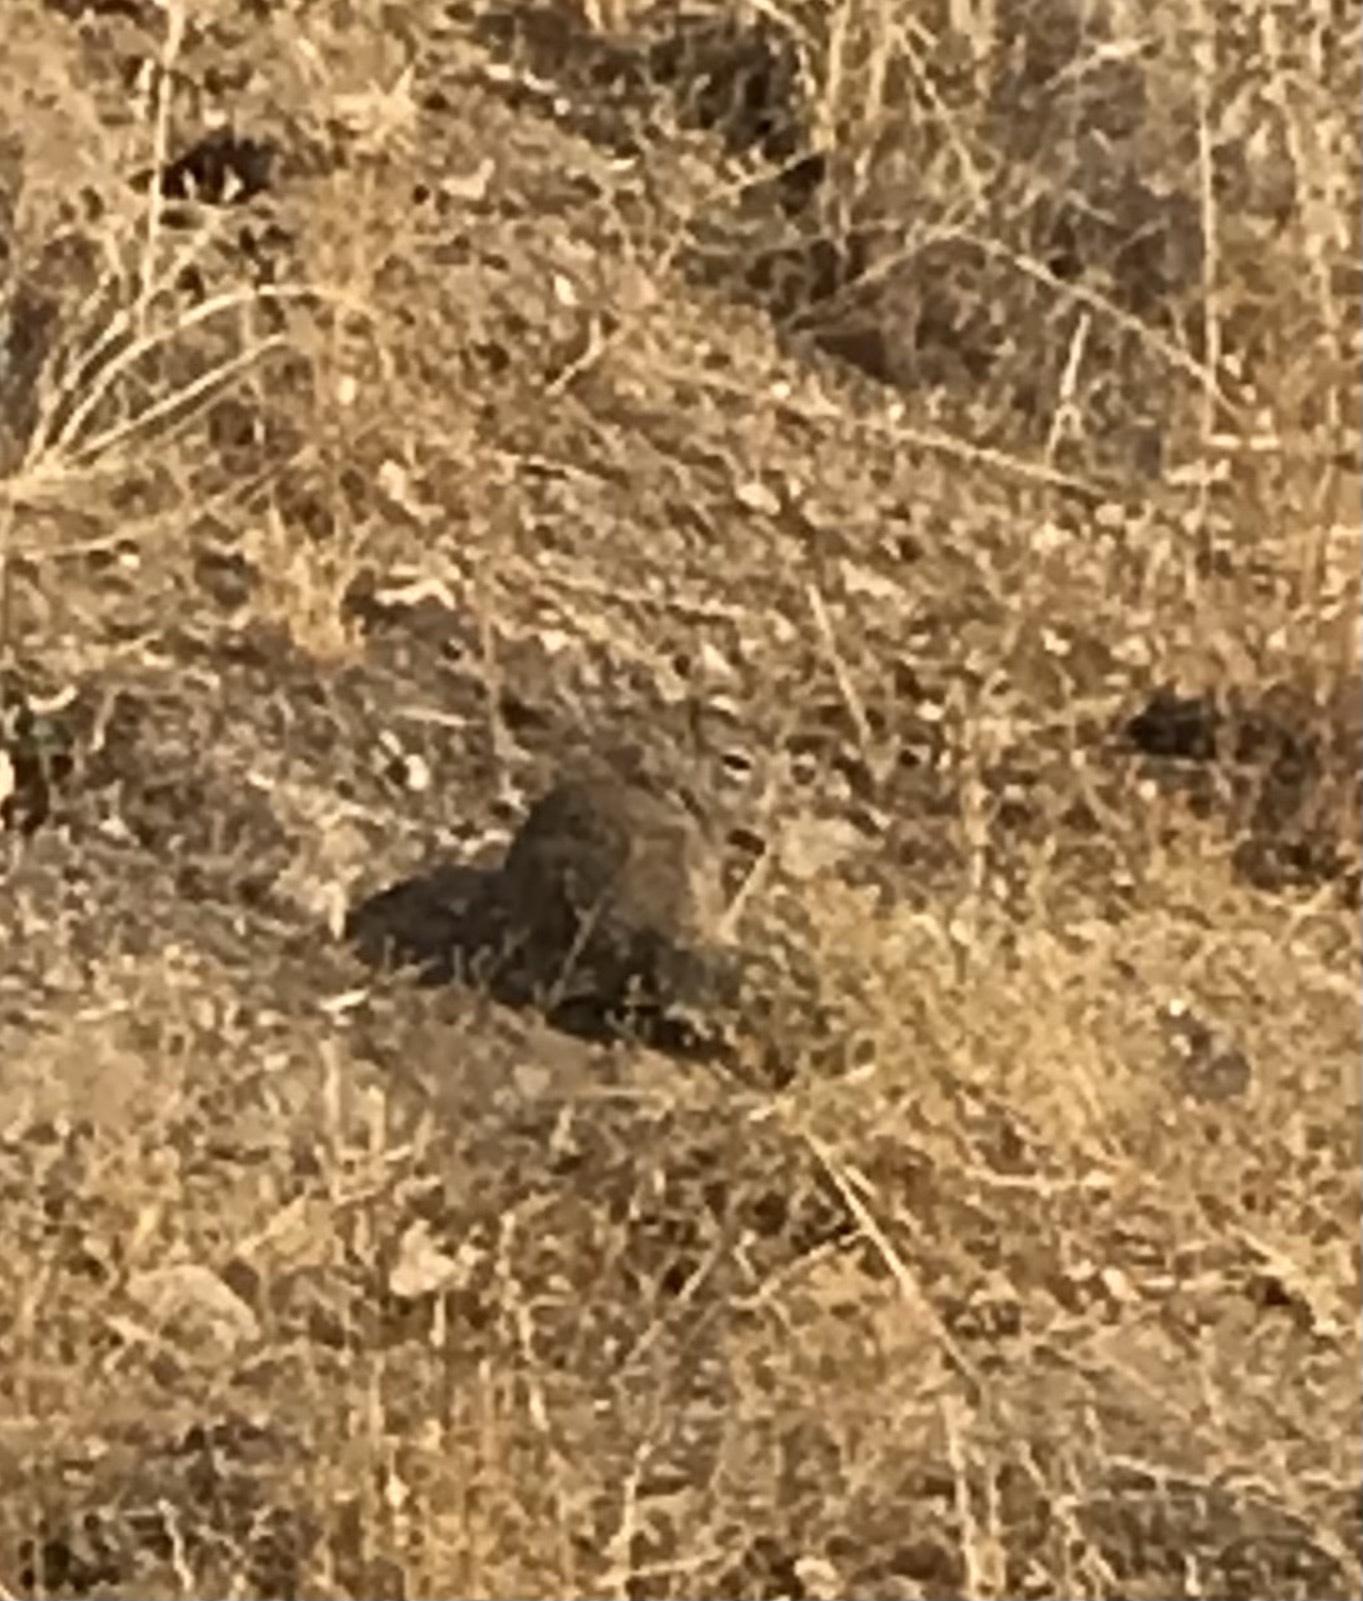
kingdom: Animalia
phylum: Chordata
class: Mammalia
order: Rodentia
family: Sciuridae
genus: Otospermophilus
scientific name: Otospermophilus beecheyi
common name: California ground squirrel
